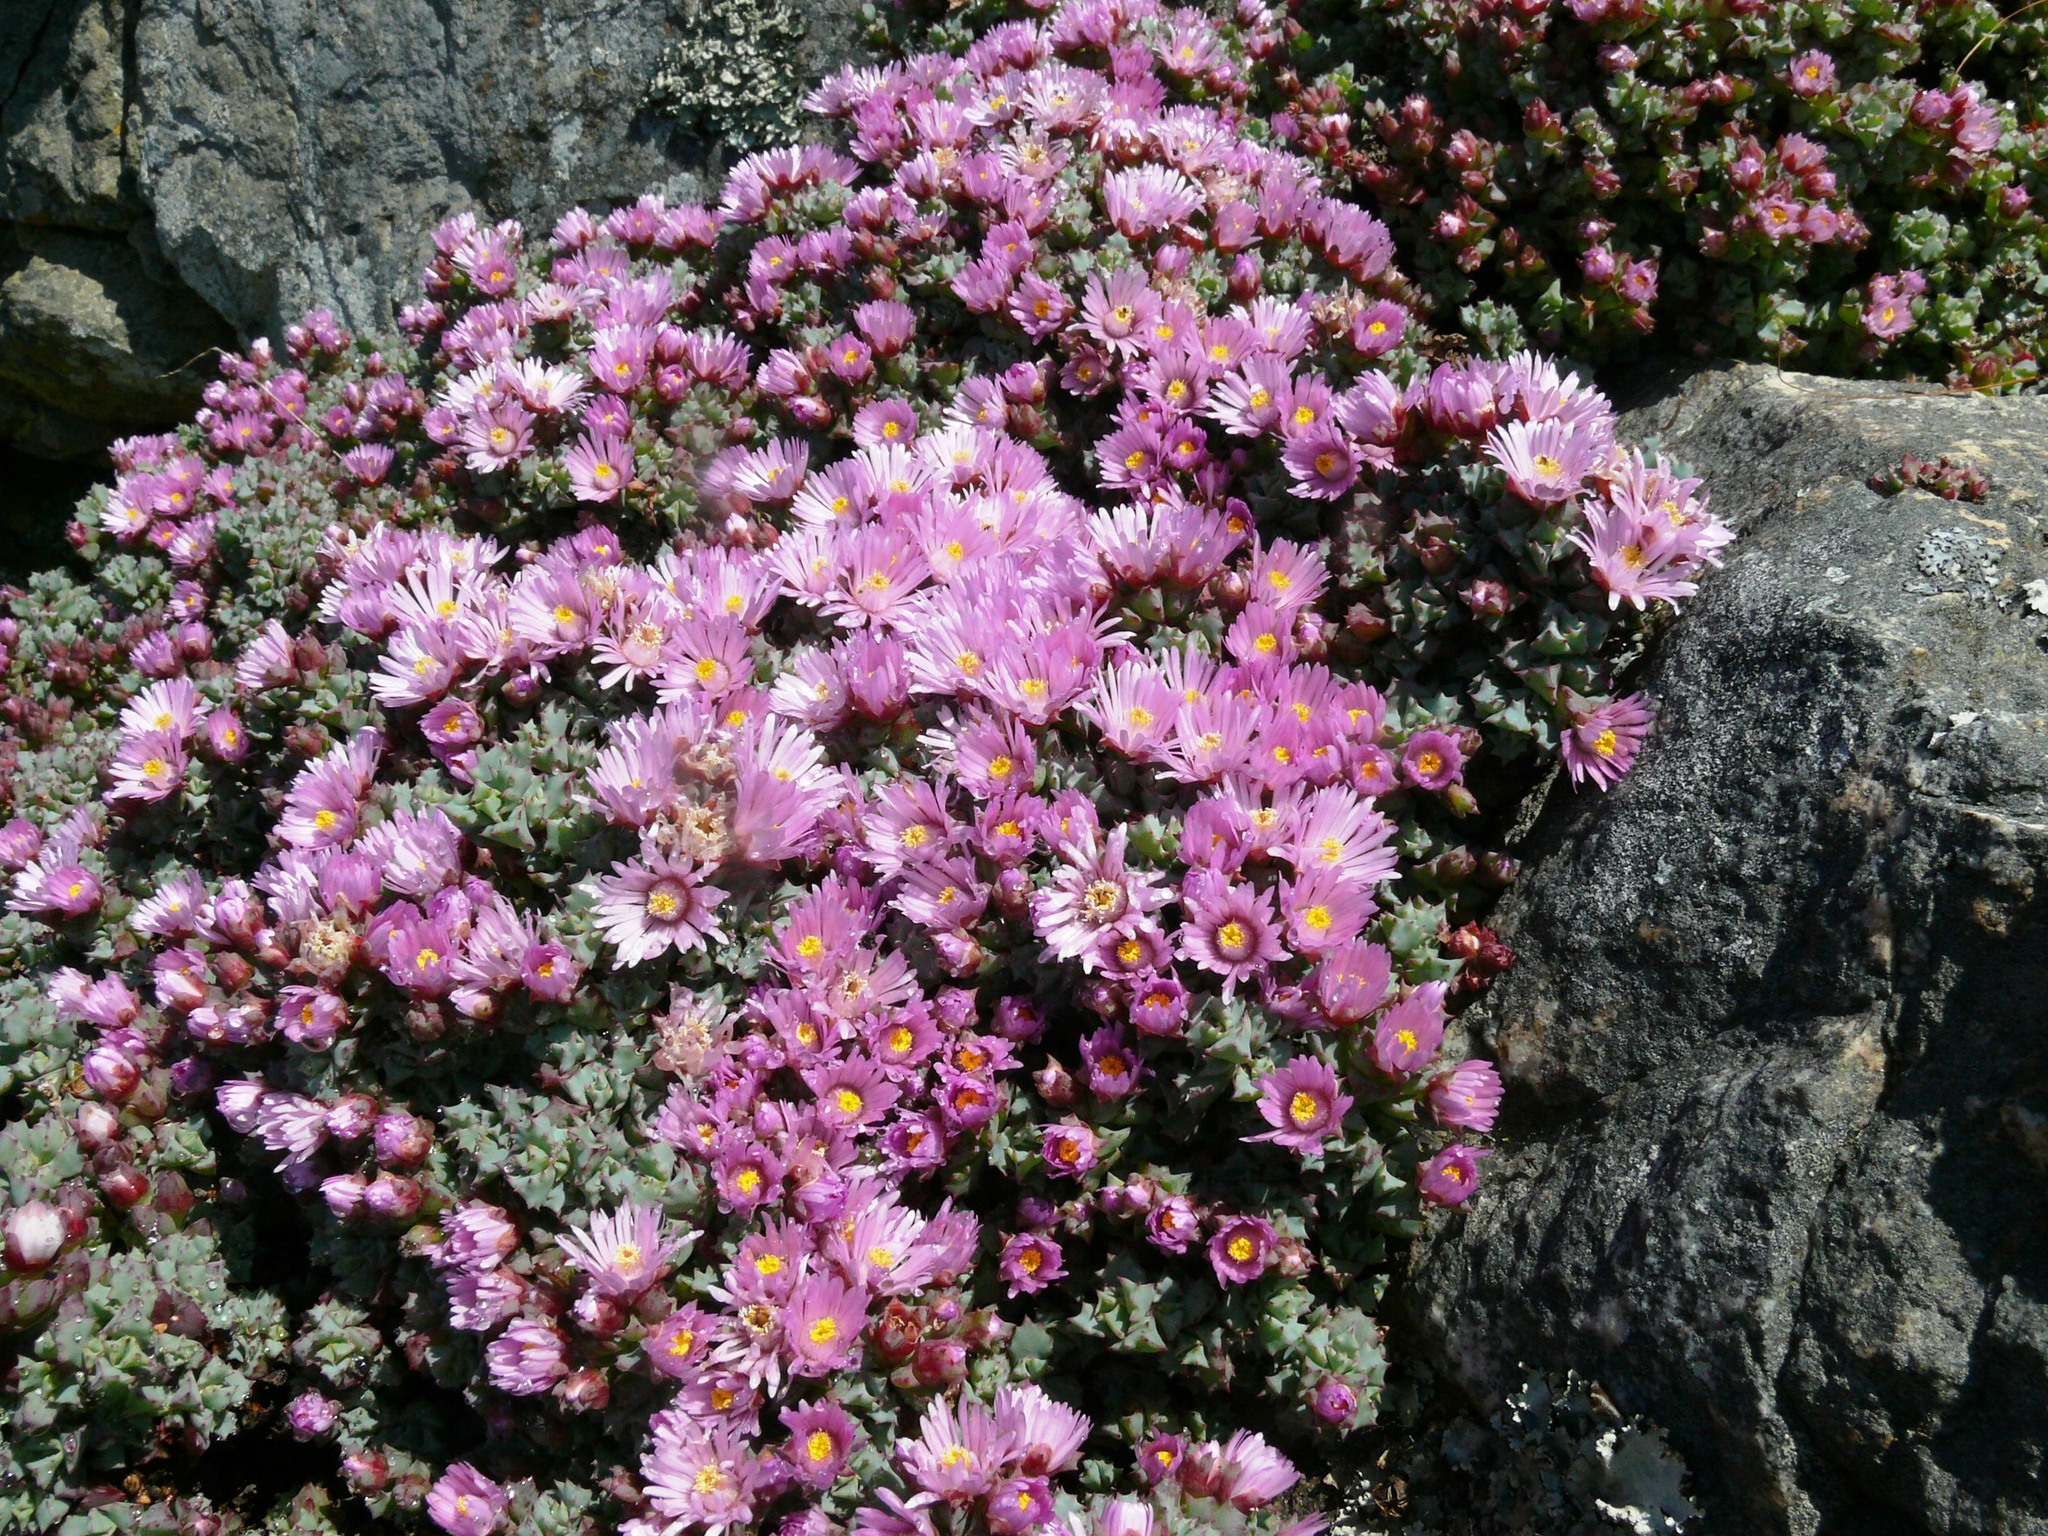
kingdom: Plantae
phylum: Tracheophyta
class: Magnoliopsida
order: Caryophyllales
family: Aizoaceae
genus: Oscularia
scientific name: Oscularia deltoides
